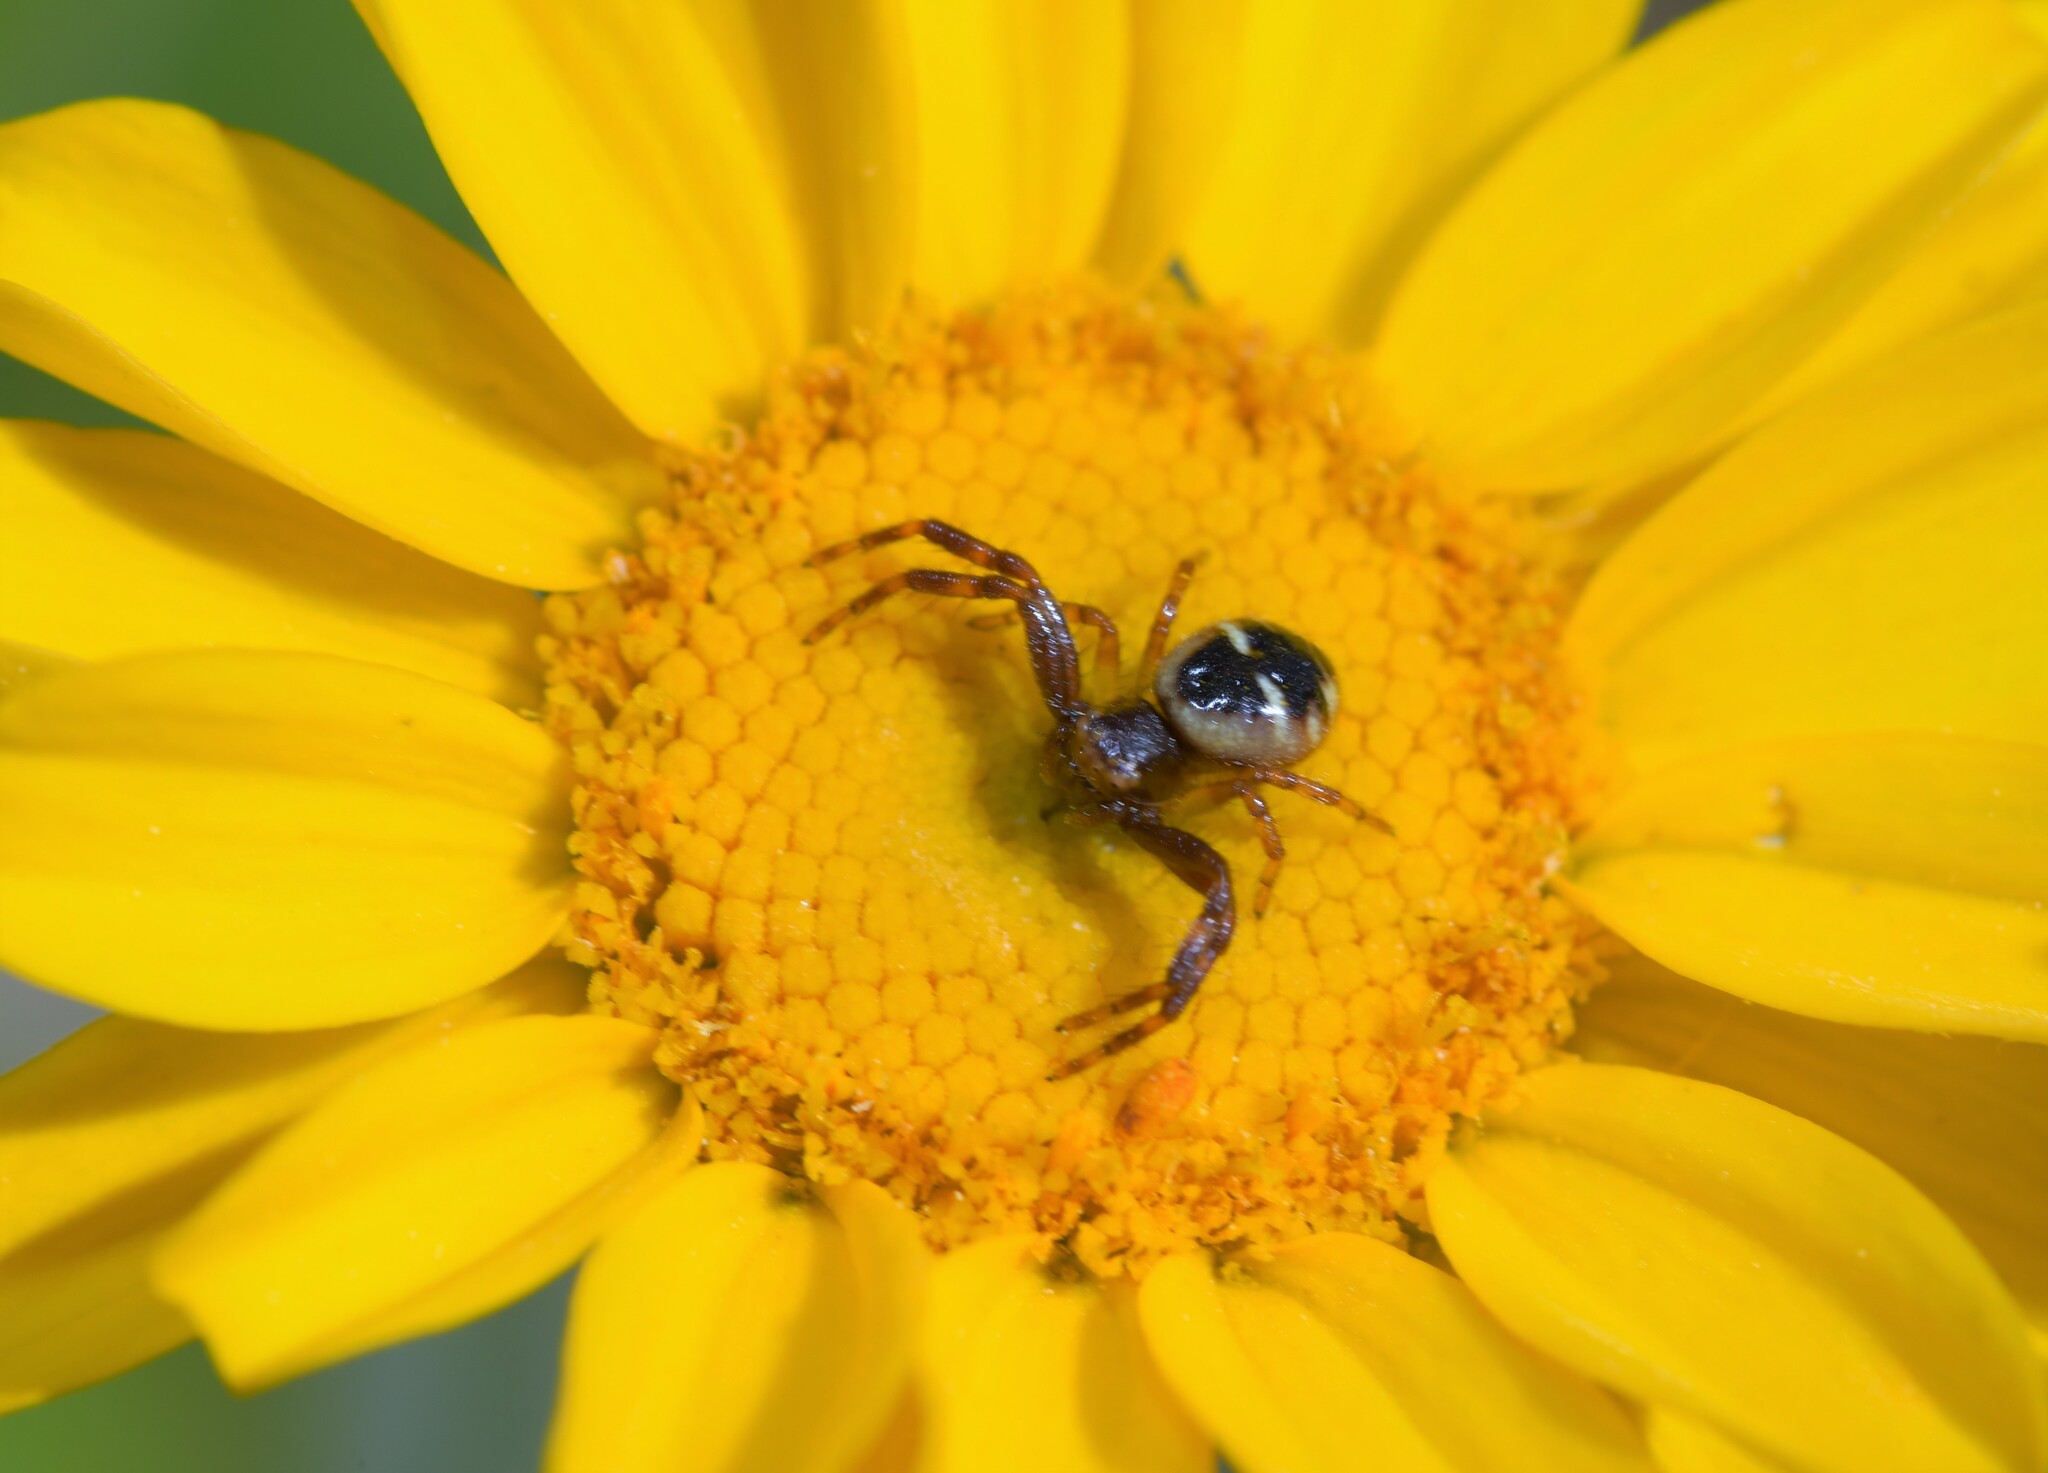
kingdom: Animalia
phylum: Arthropoda
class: Arachnida
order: Araneae
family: Thomisidae
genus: Synema
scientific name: Synema globosum
